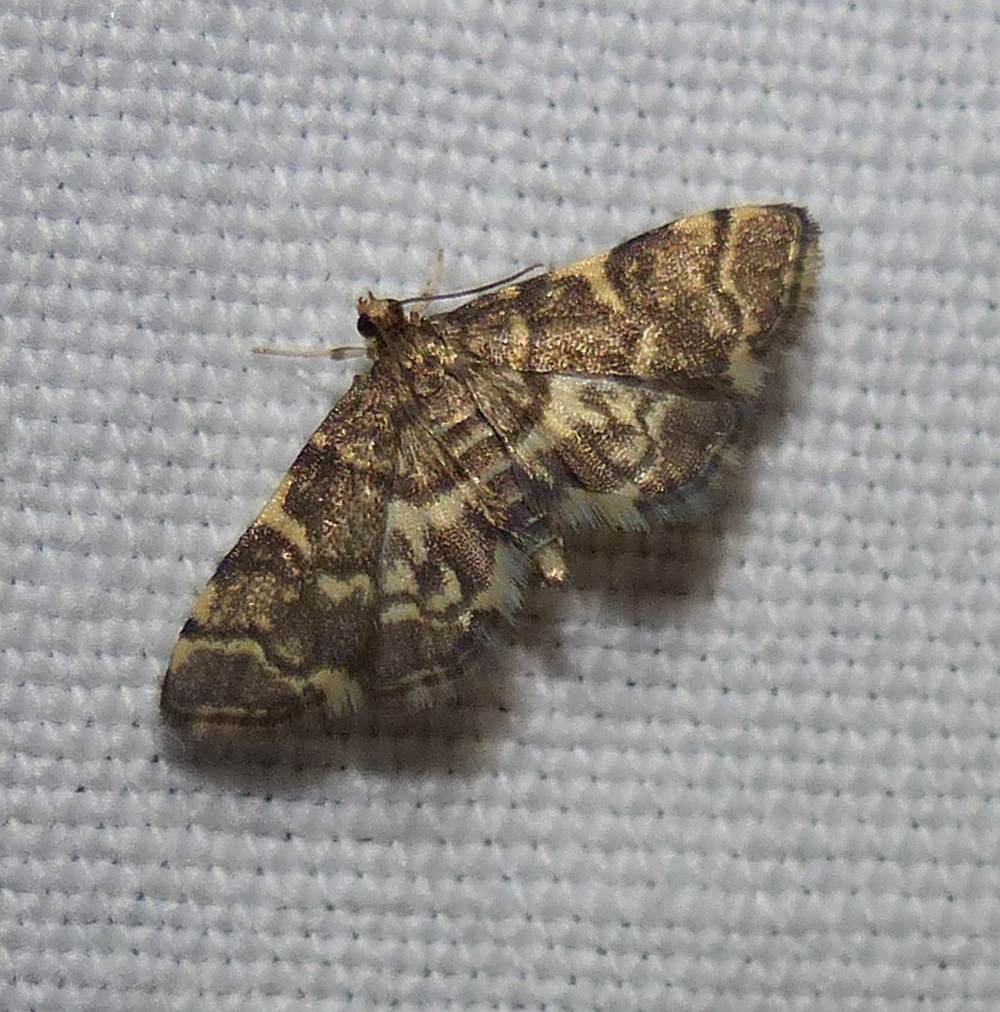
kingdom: Animalia
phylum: Arthropoda
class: Insecta
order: Lepidoptera
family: Crambidae
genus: Anageshna
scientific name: Anageshna primordialis
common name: Yellow-spotted webworm moth
